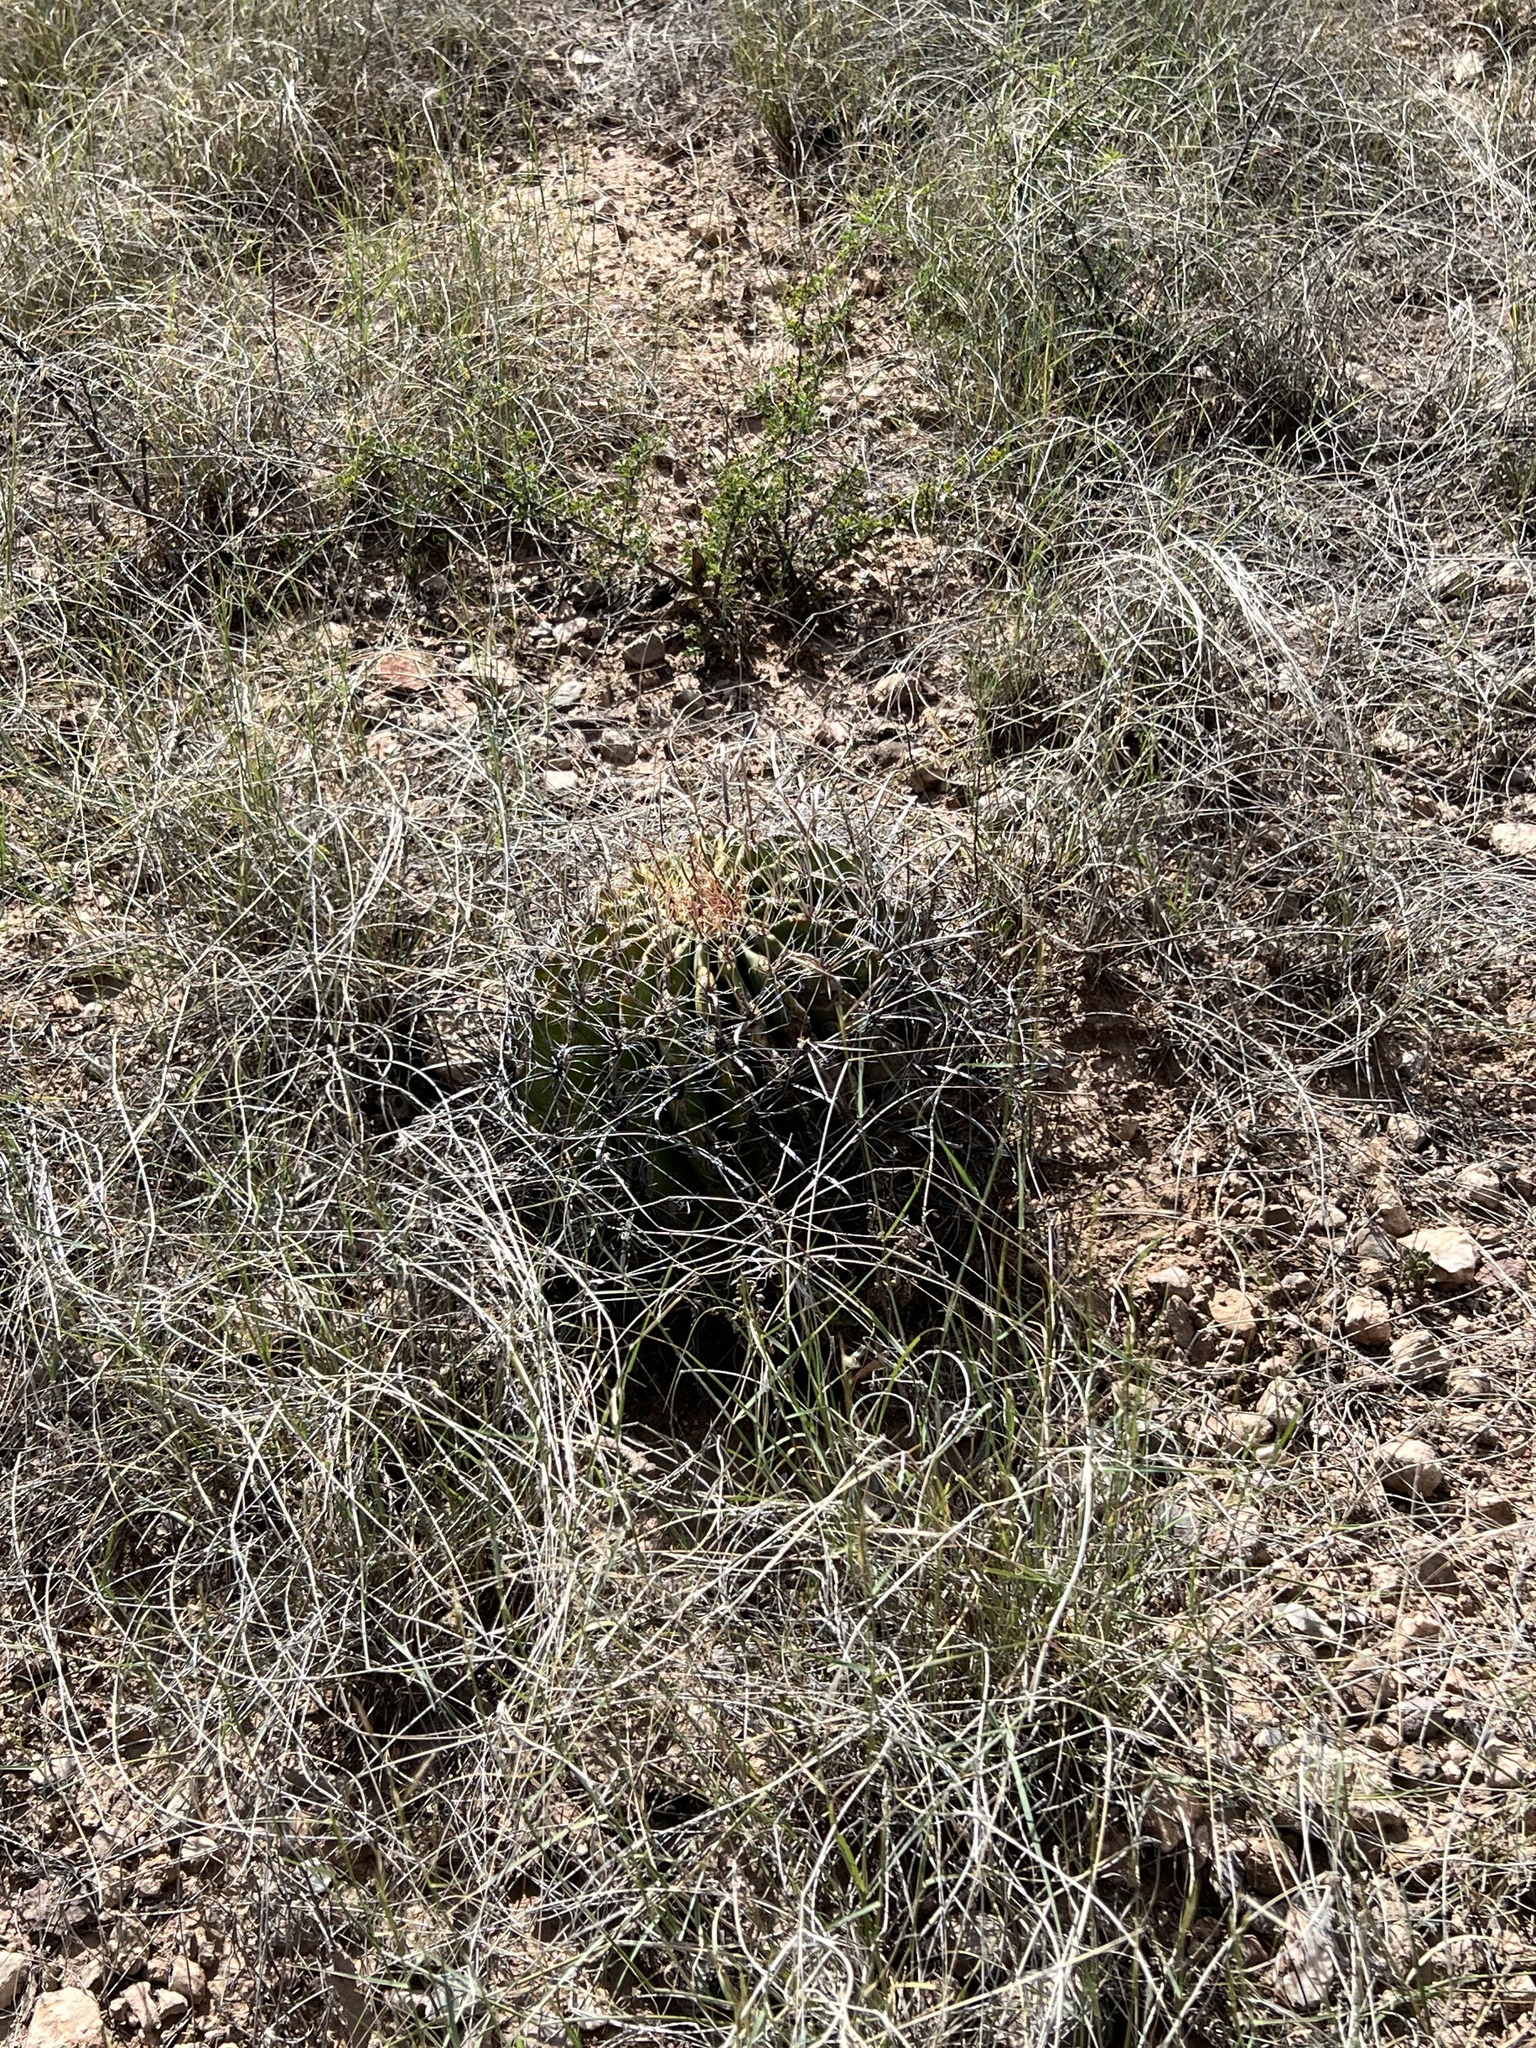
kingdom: Plantae
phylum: Tracheophyta
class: Magnoliopsida
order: Caryophyllales
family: Cactaceae
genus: Ferocactus
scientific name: Ferocactus wislizeni
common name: Candy barrel cactus
